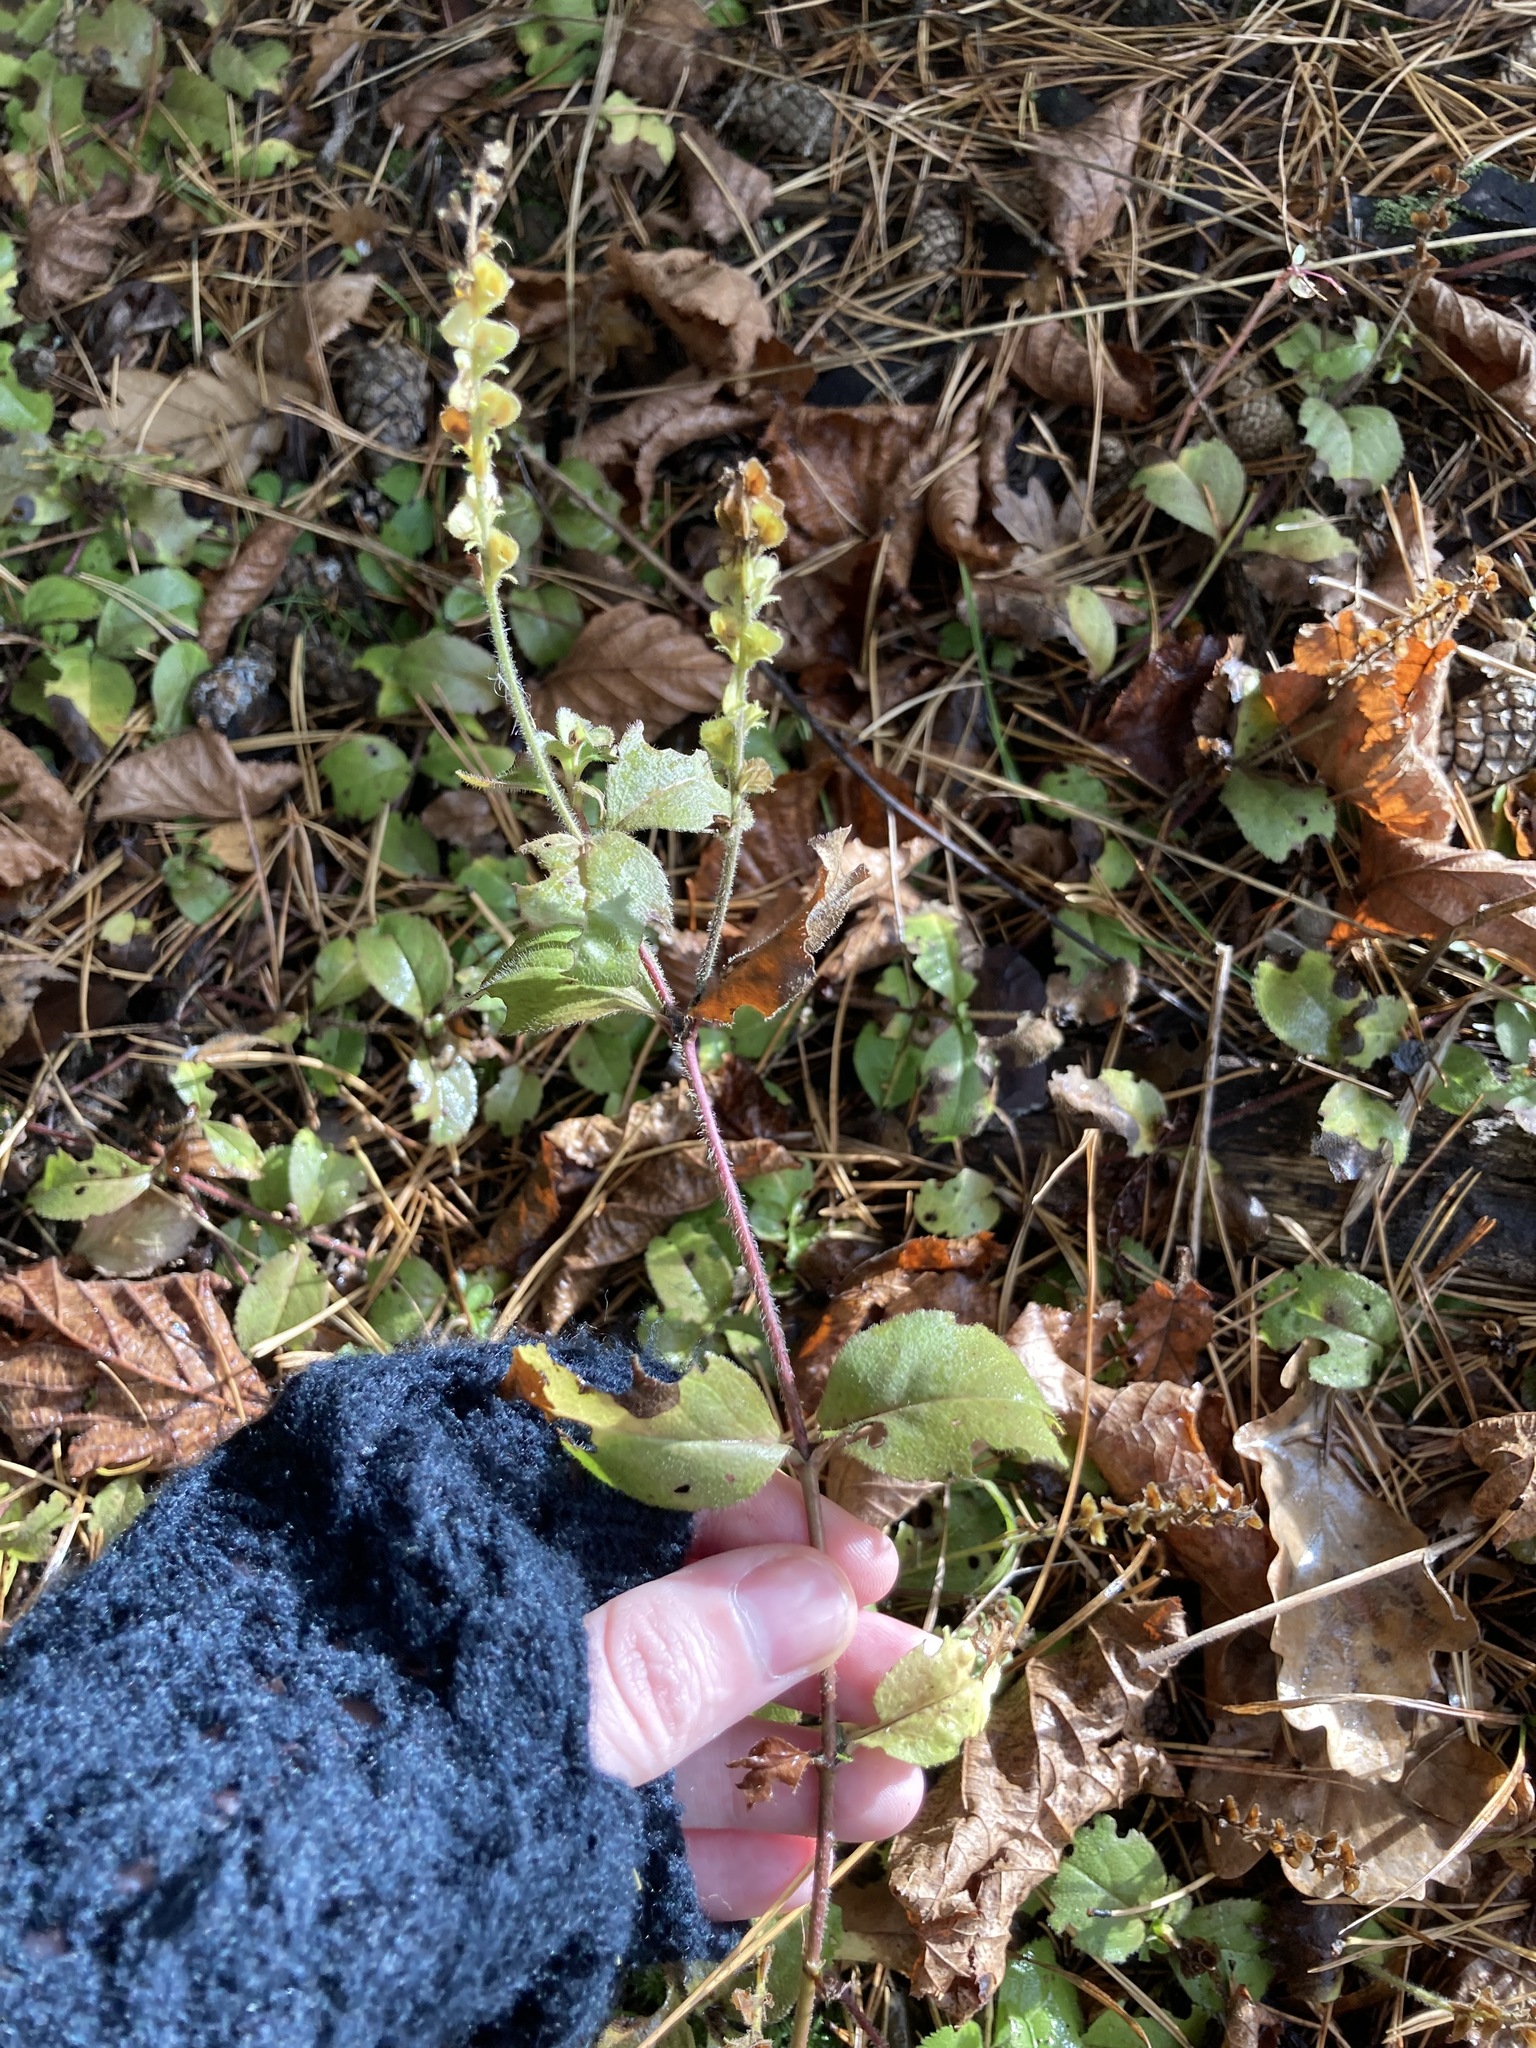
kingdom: Plantae
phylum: Tracheophyta
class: Magnoliopsida
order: Lamiales
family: Plantaginaceae
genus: Veronica
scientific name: Veronica officinalis
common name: Common speedwell
